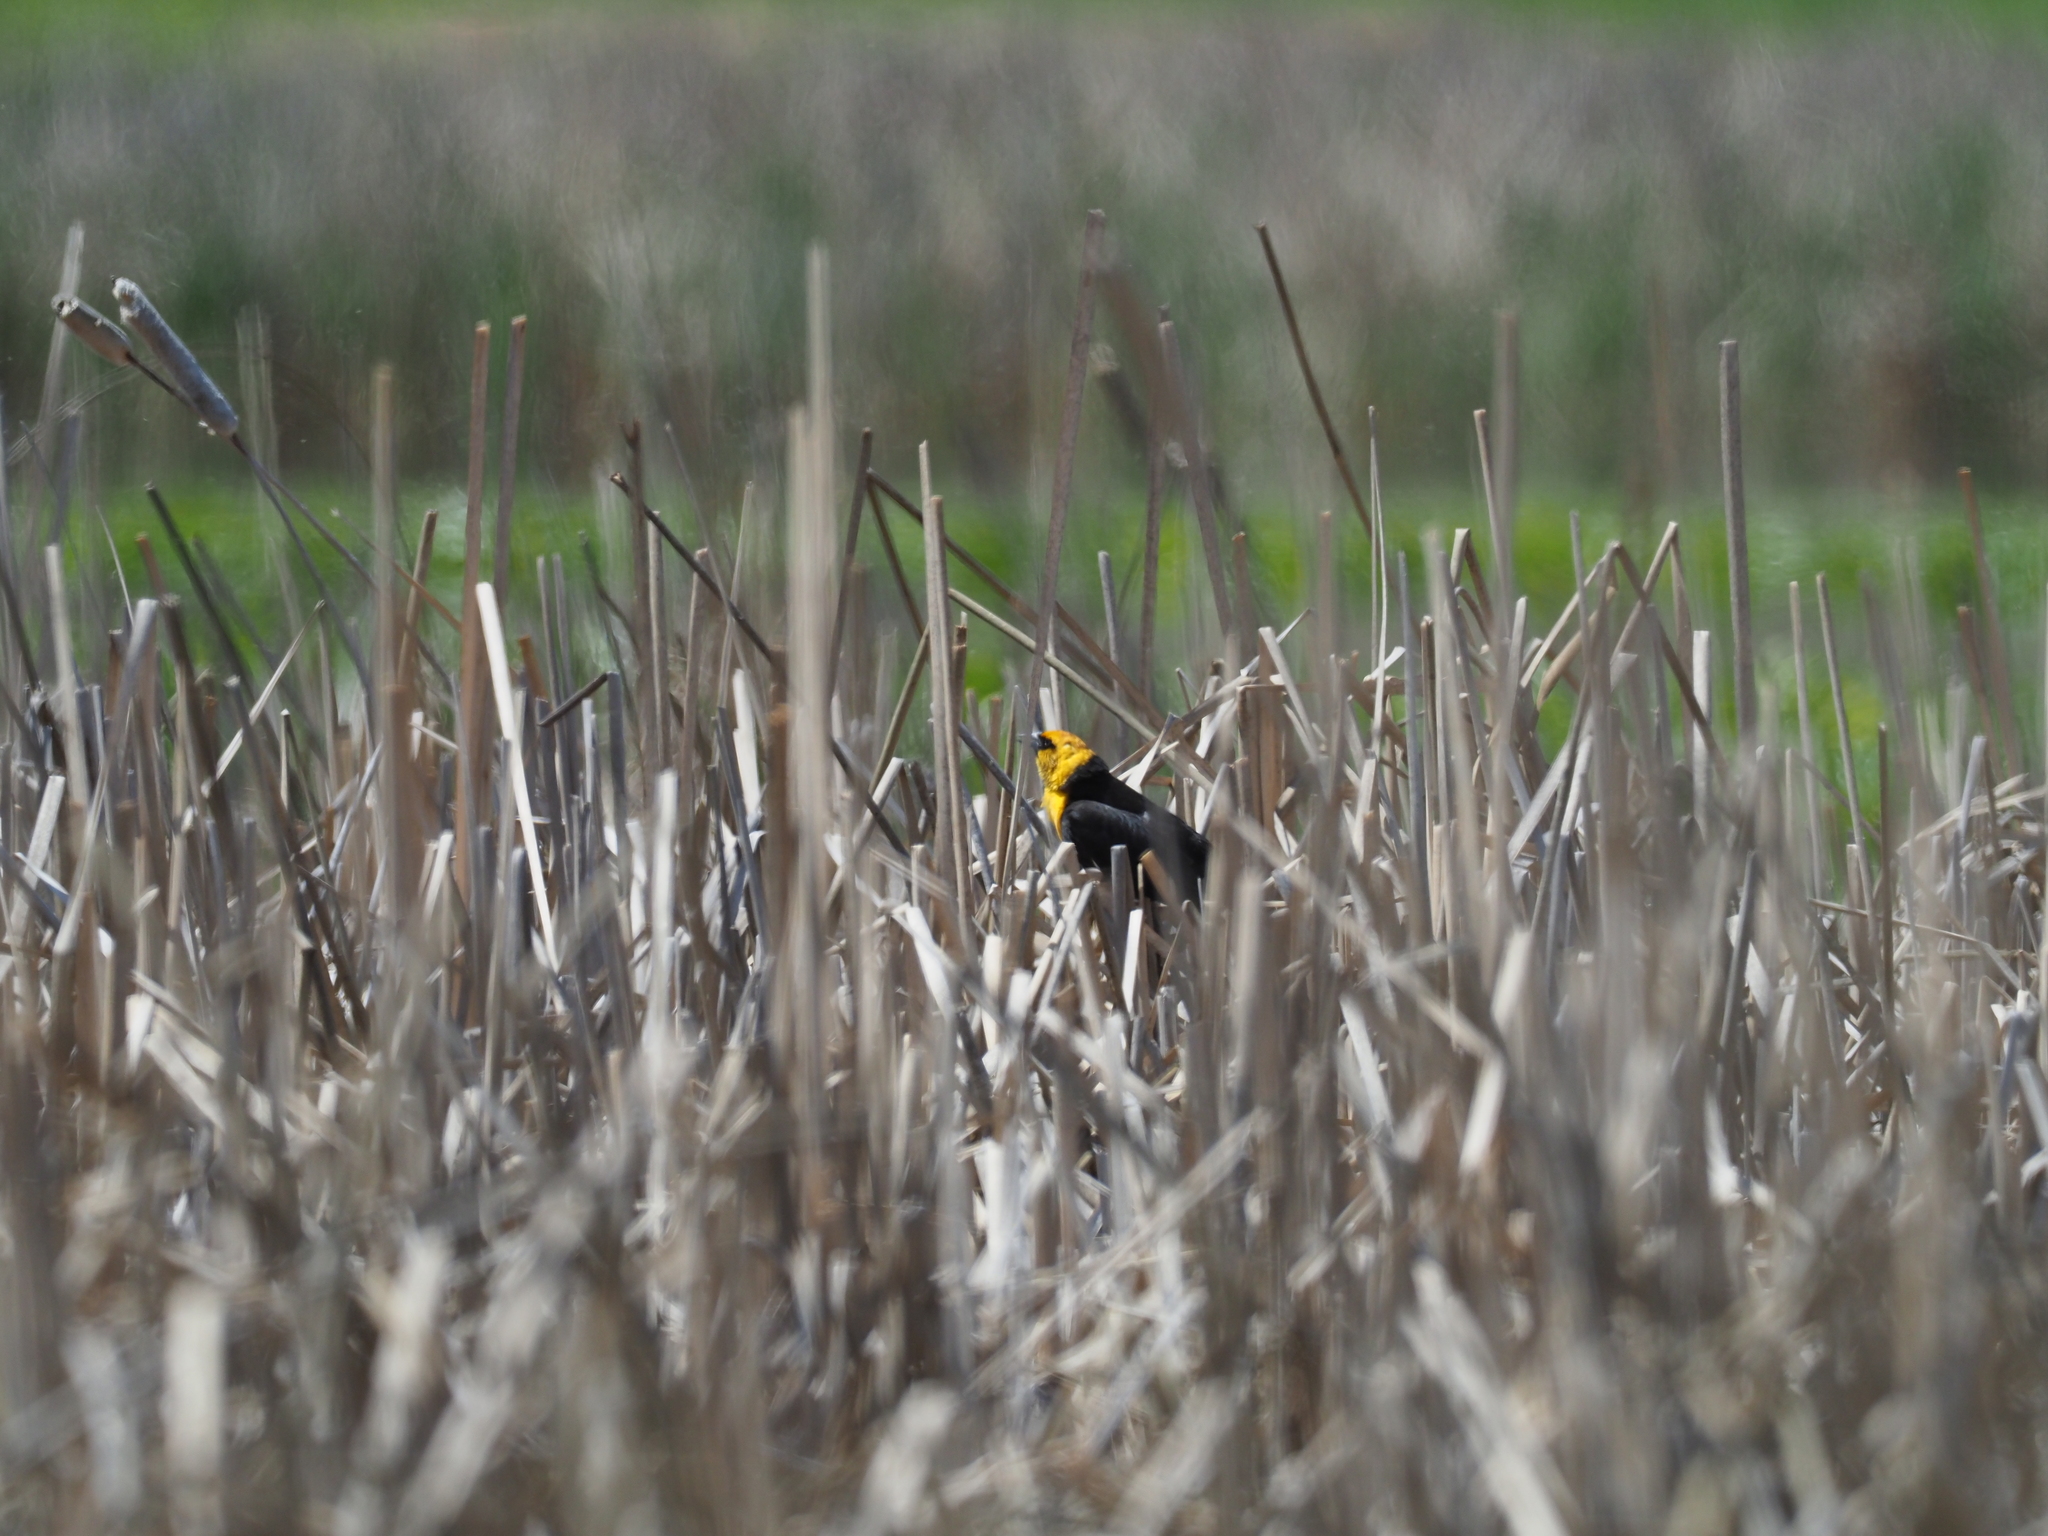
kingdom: Animalia
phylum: Chordata
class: Aves
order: Passeriformes
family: Icteridae
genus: Xanthocephalus
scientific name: Xanthocephalus xanthocephalus
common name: Yellow-headed blackbird
